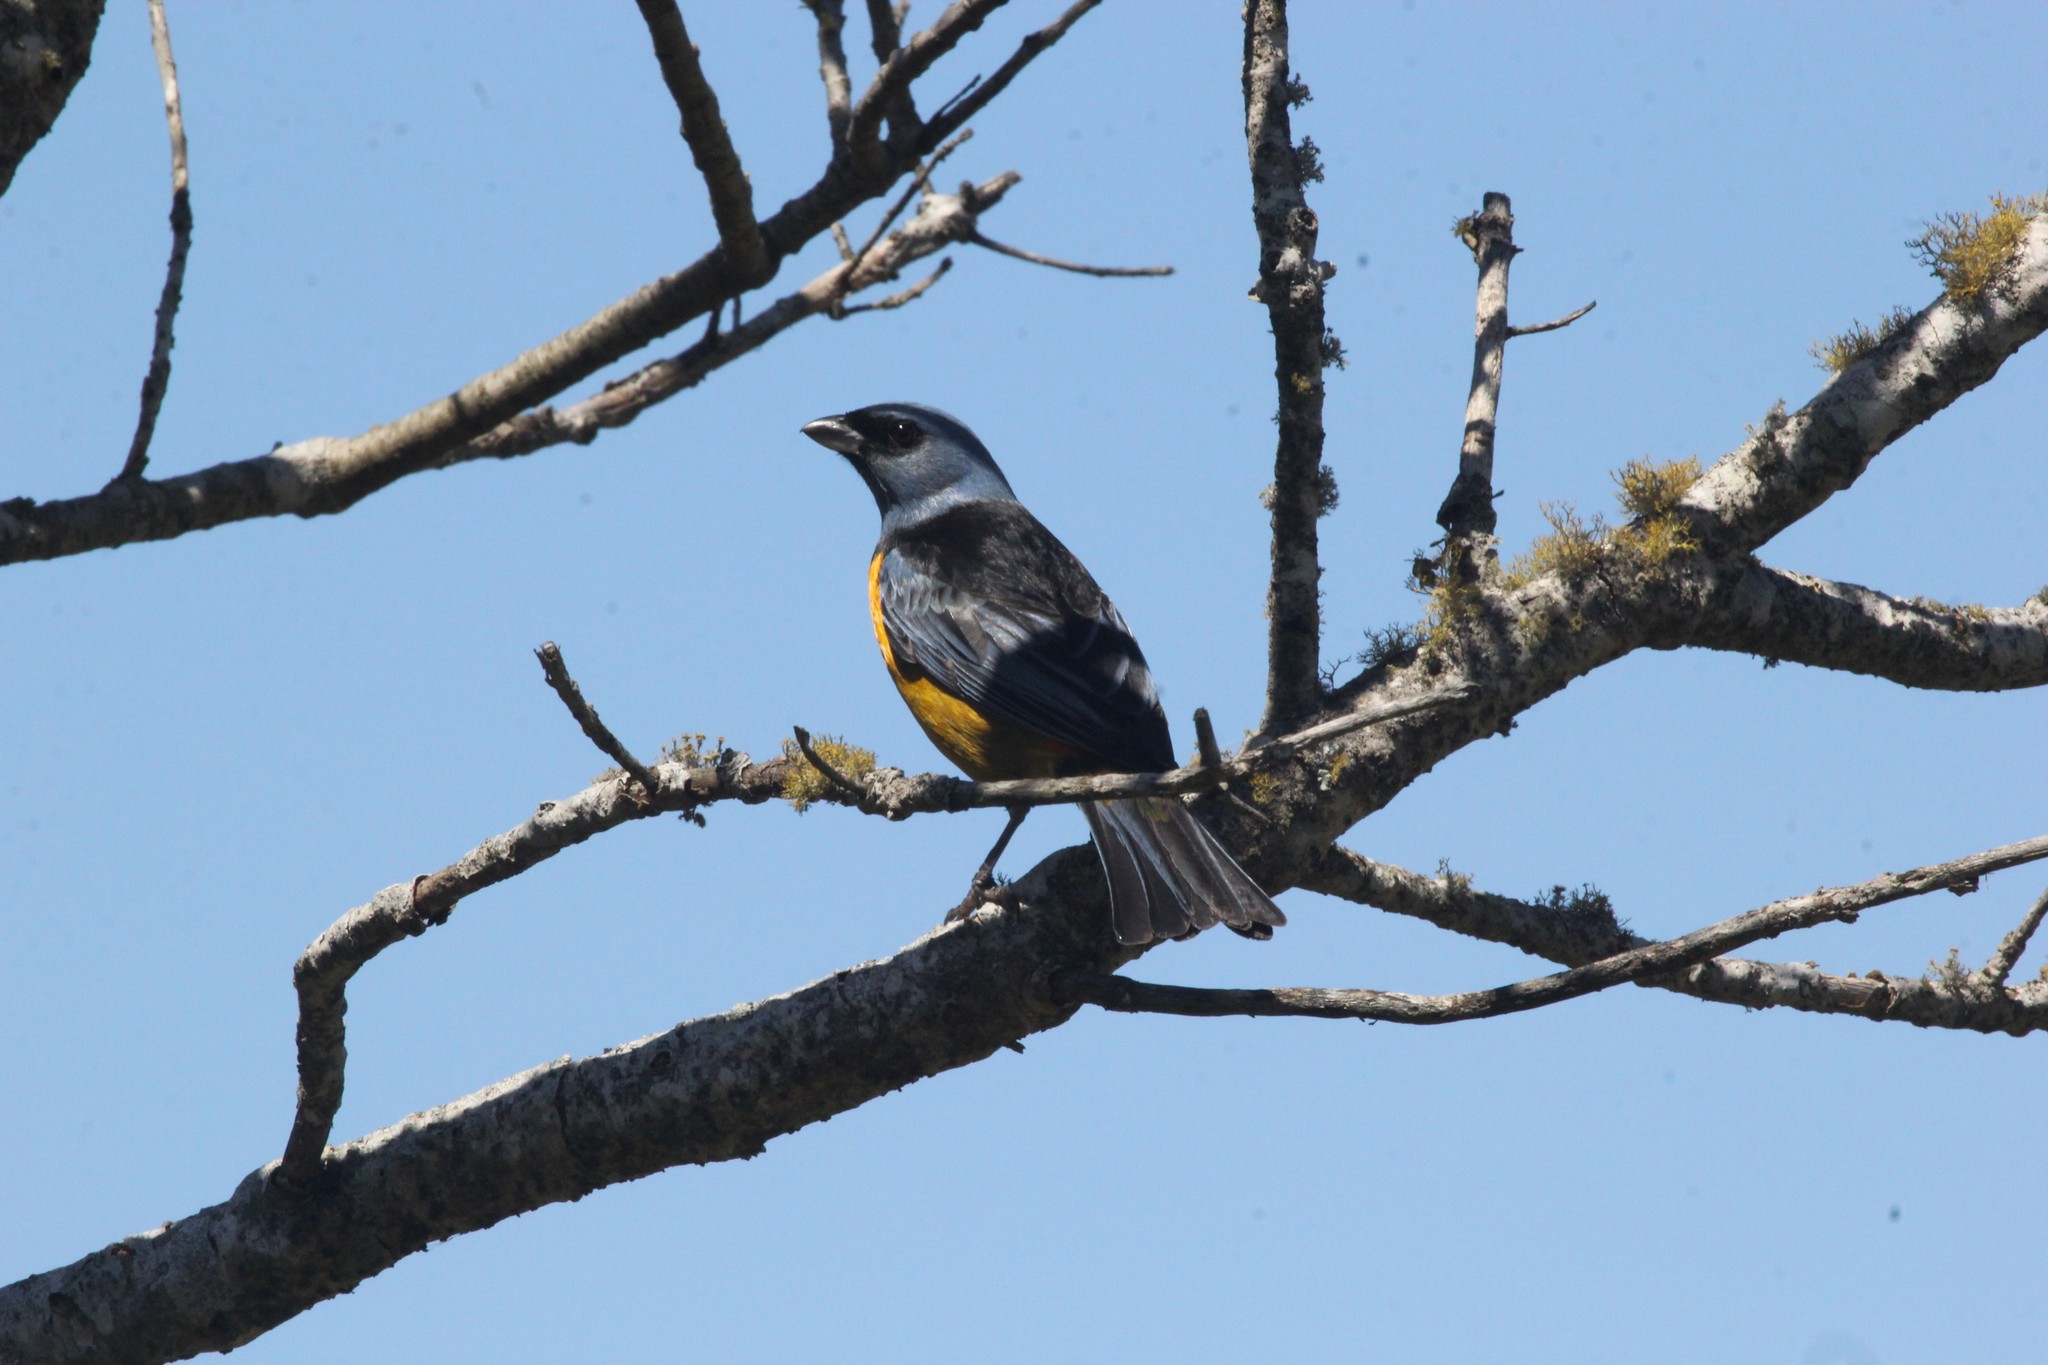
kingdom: Animalia
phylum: Chordata
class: Aves
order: Passeriformes
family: Thraupidae
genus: Rauenia
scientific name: Rauenia bonariensis
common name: Blue-and-yellow tanager
